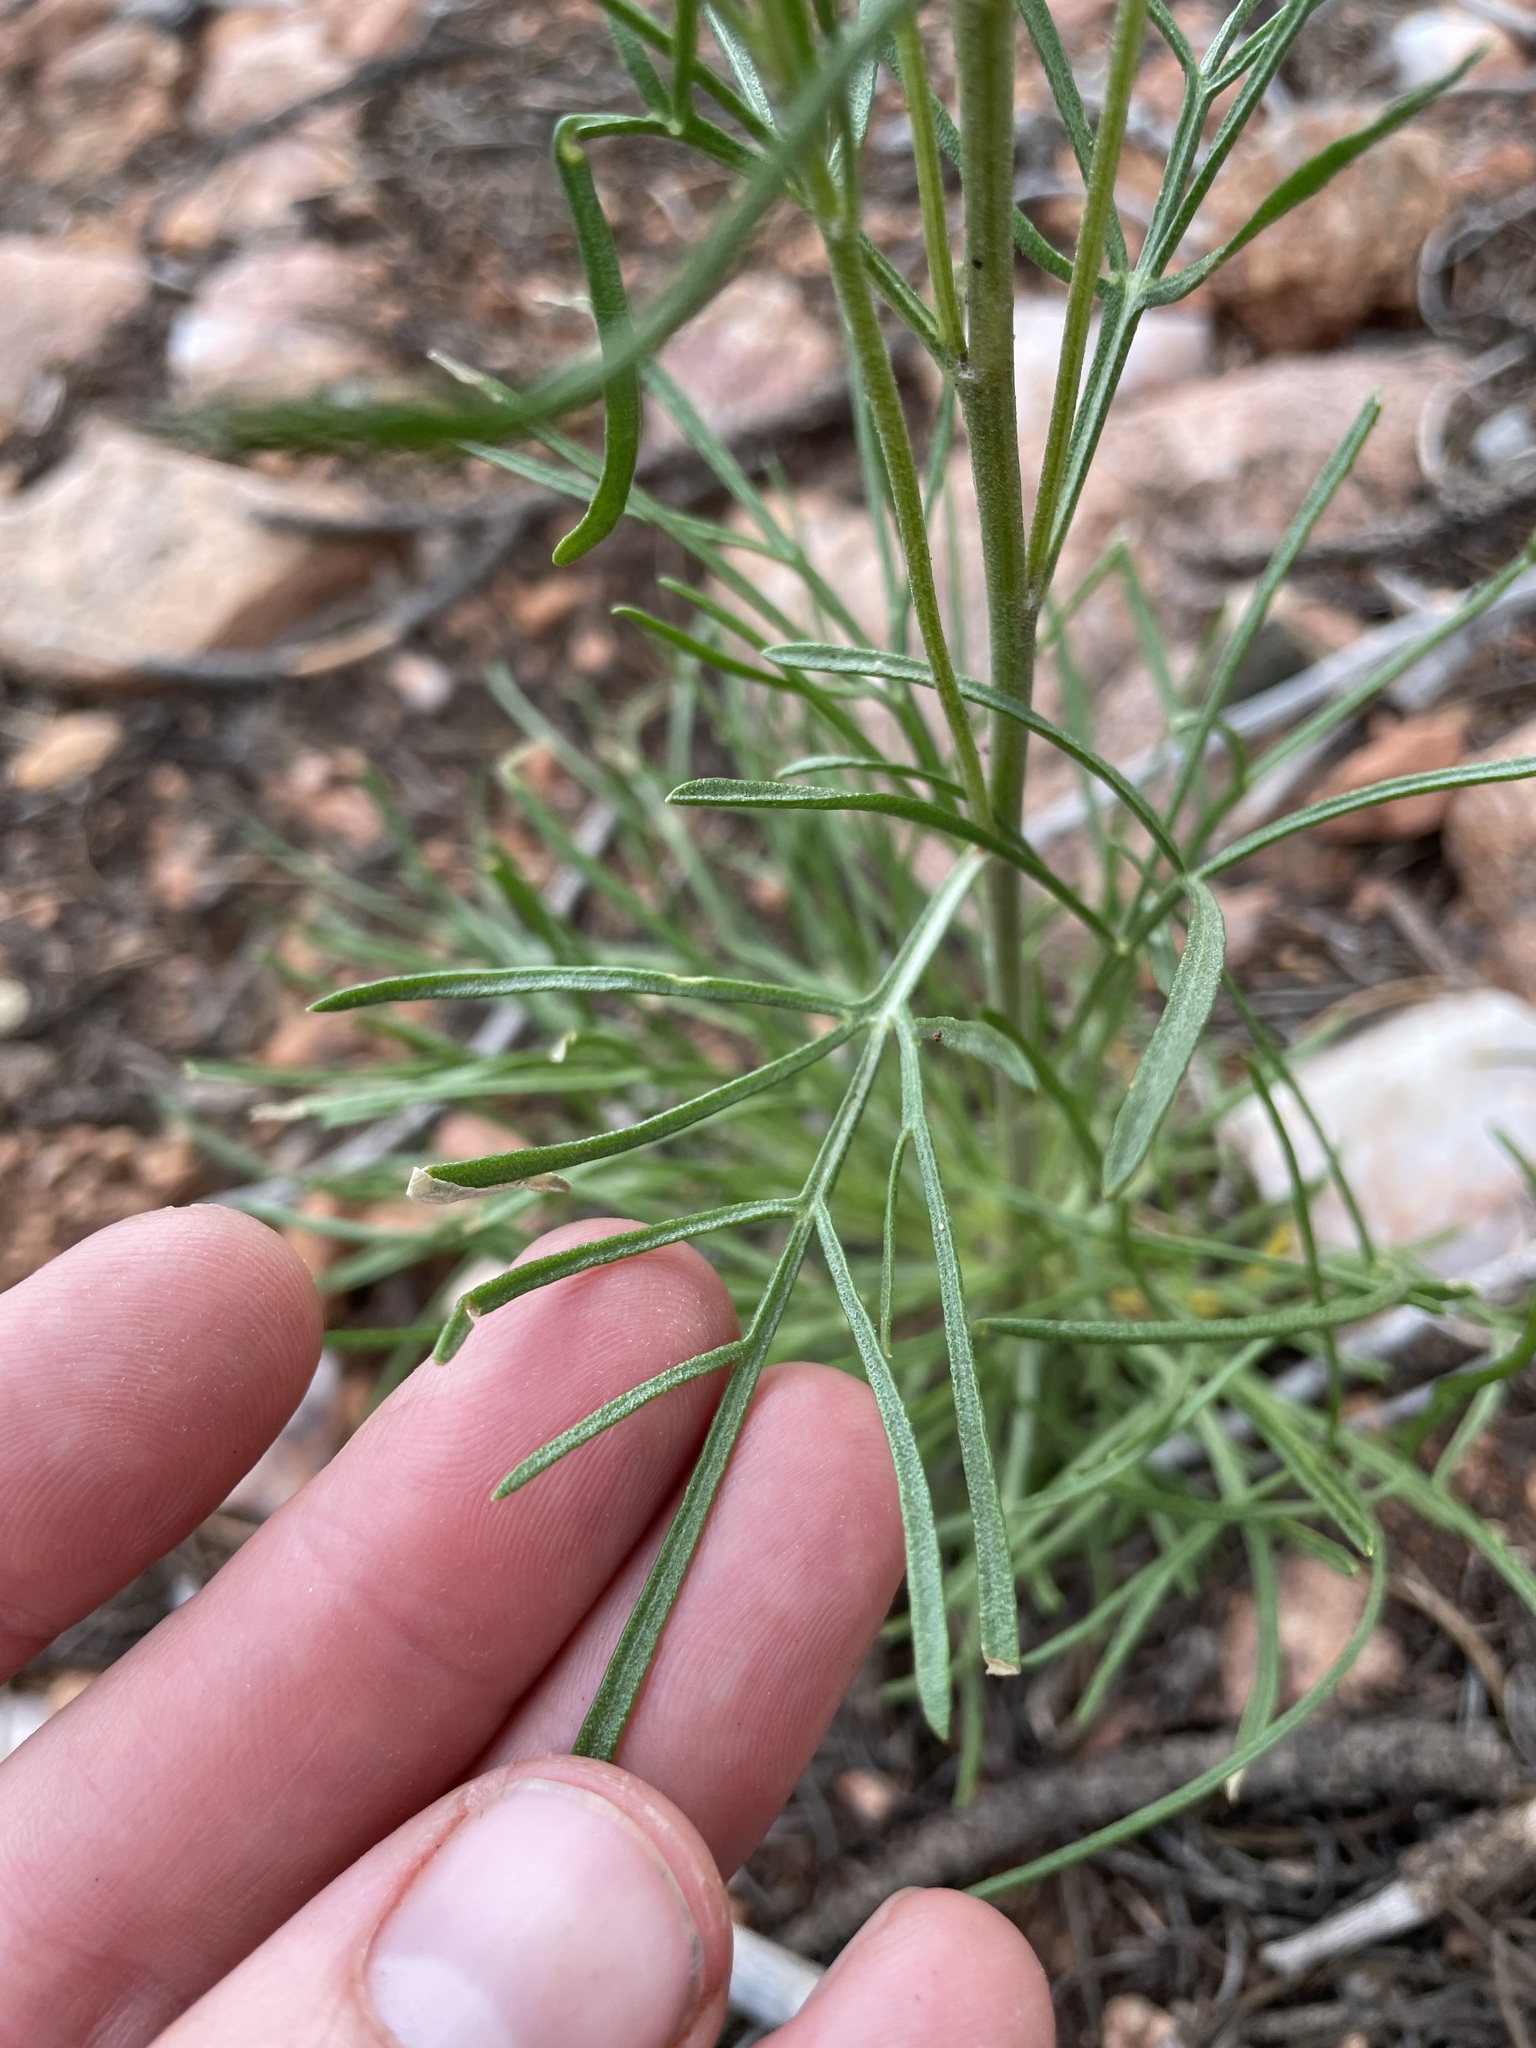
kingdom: Plantae
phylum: Tracheophyta
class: Magnoliopsida
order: Asterales
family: Asteraceae
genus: Hymenoxys
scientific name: Hymenoxys richardsonii
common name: Pingue rubberweed
